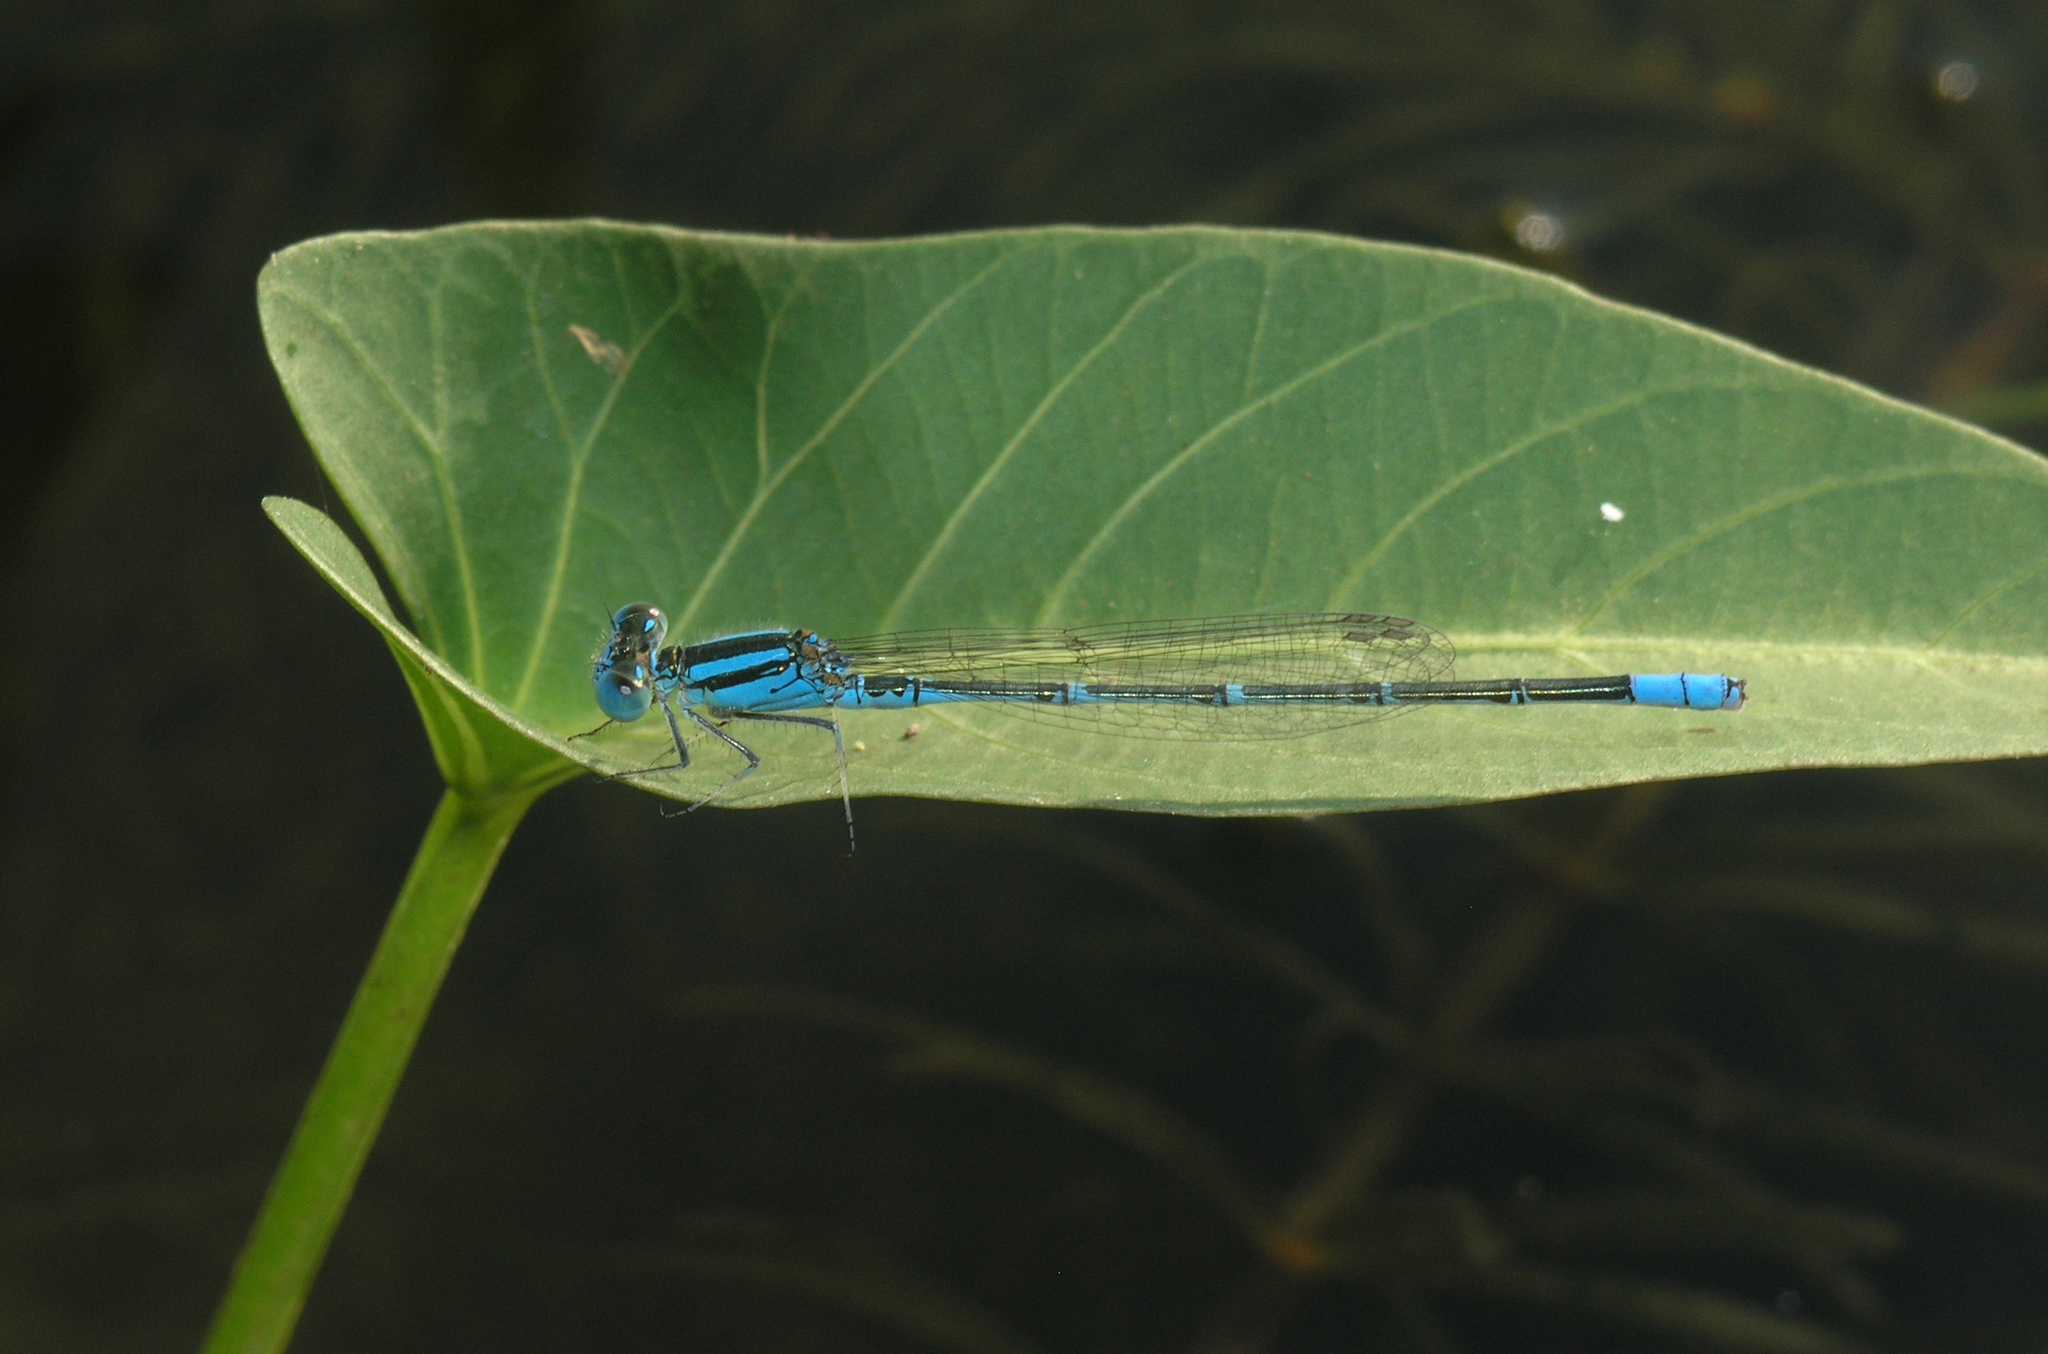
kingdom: Animalia
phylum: Arthropoda
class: Insecta
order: Odonata
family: Coenagrionidae
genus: Paracercion
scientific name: Paracercion melanotum
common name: Eastern lilysquatter
